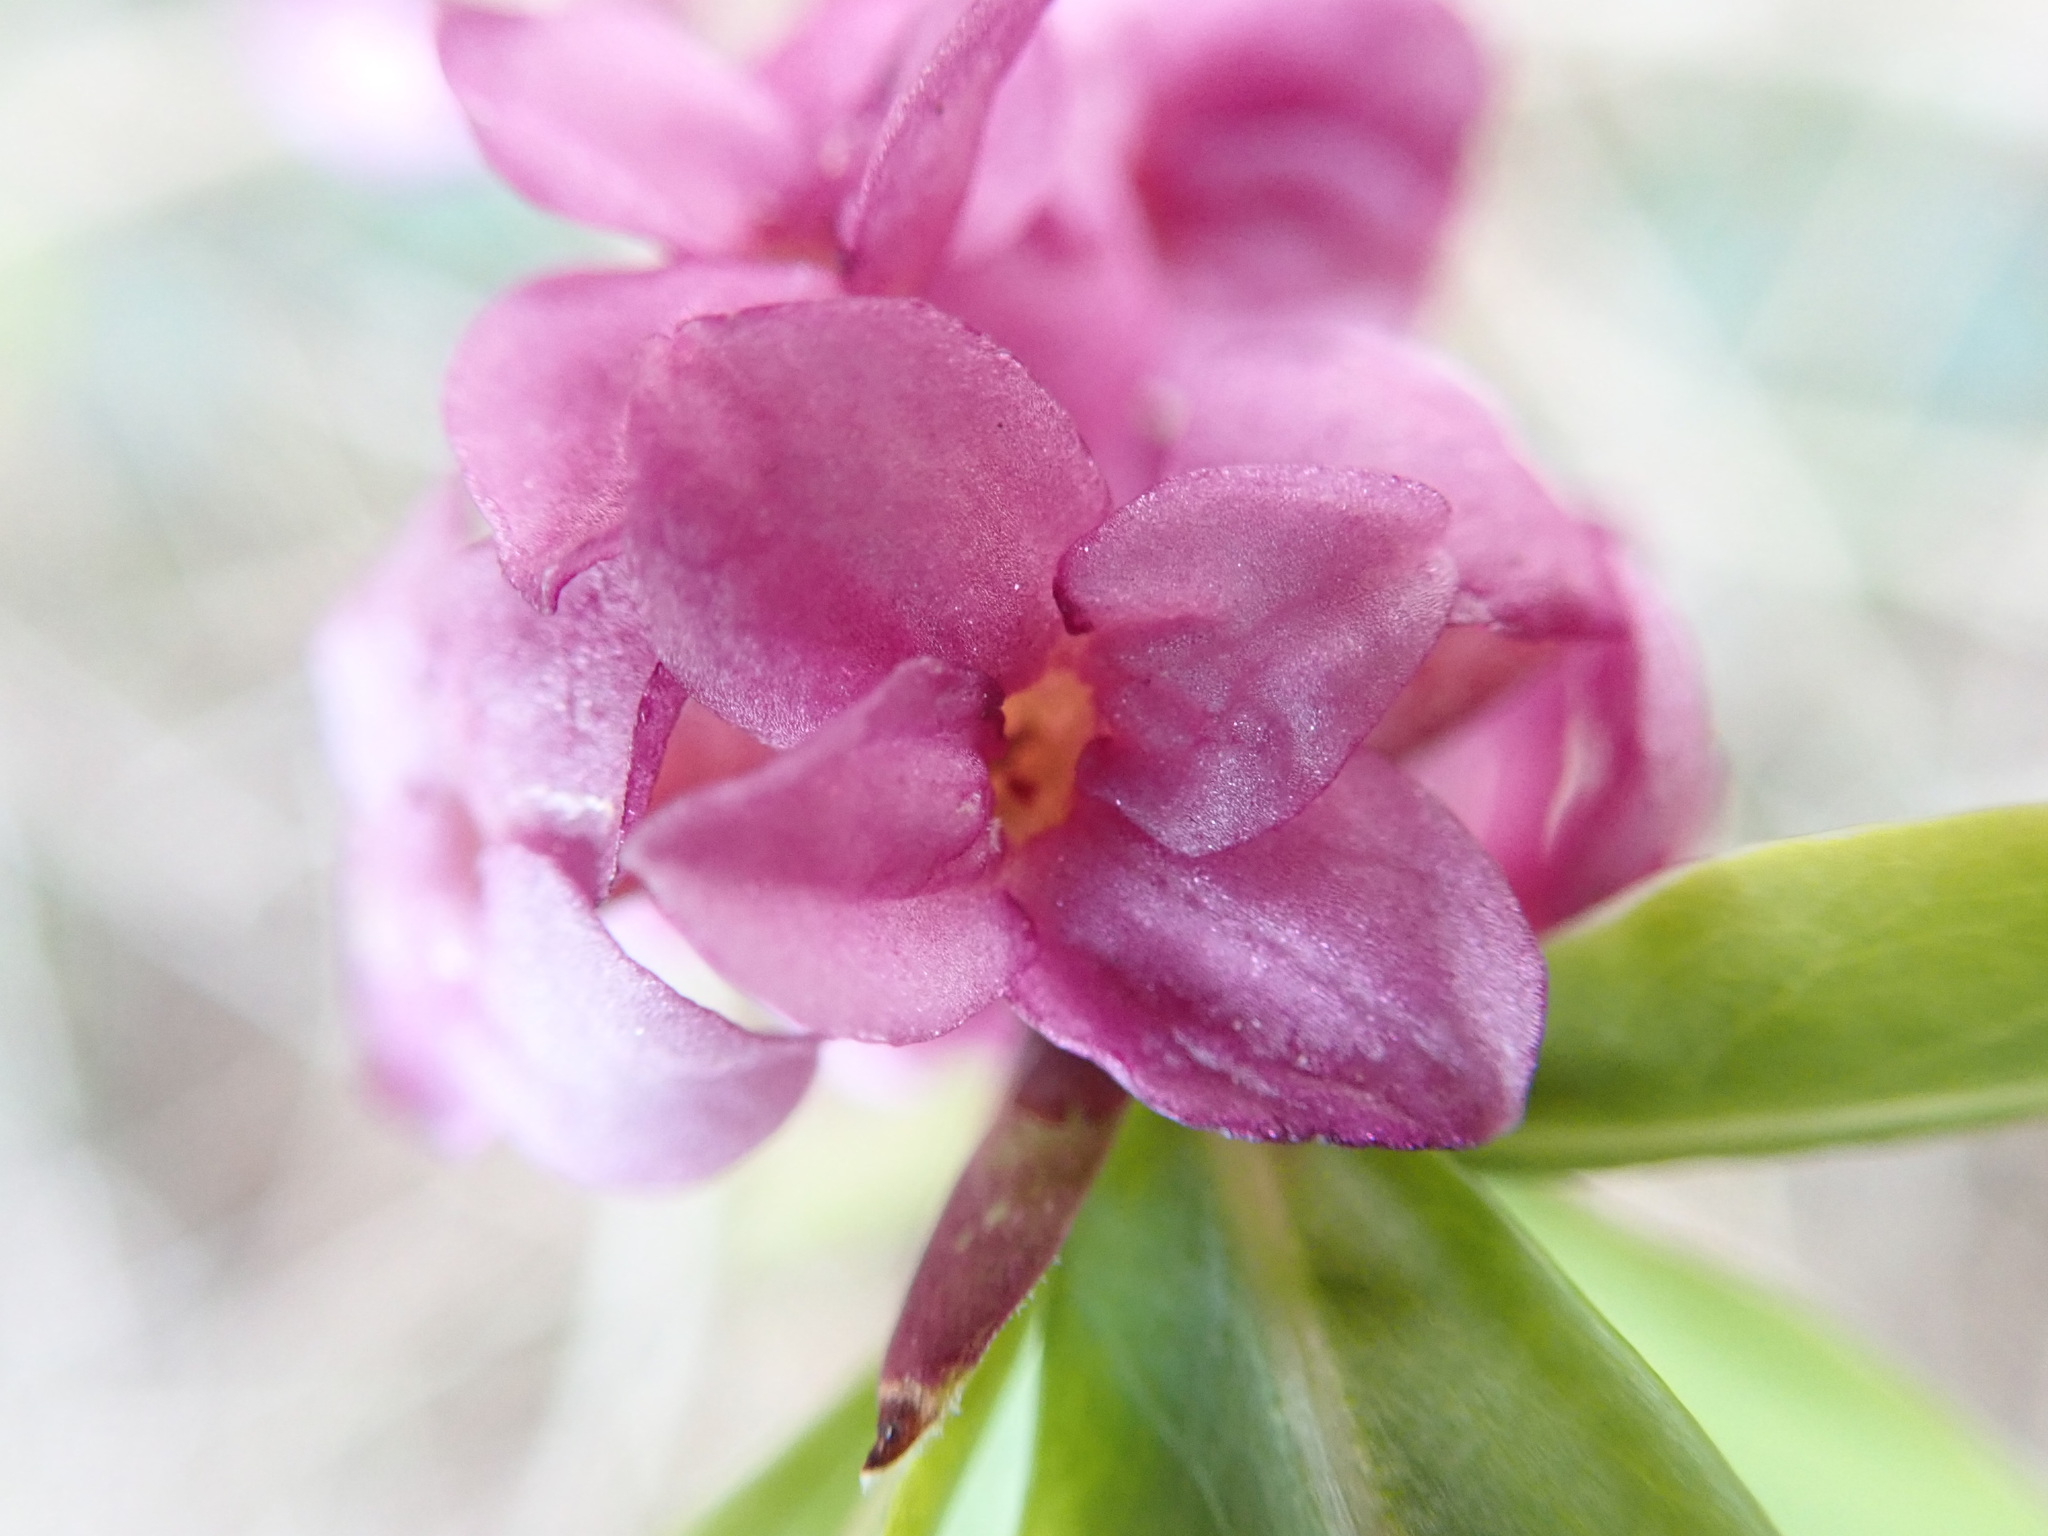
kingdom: Plantae
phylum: Tracheophyta
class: Magnoliopsida
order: Malvales
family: Thymelaeaceae
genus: Daphne
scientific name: Daphne mezereum
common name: Mezereon
